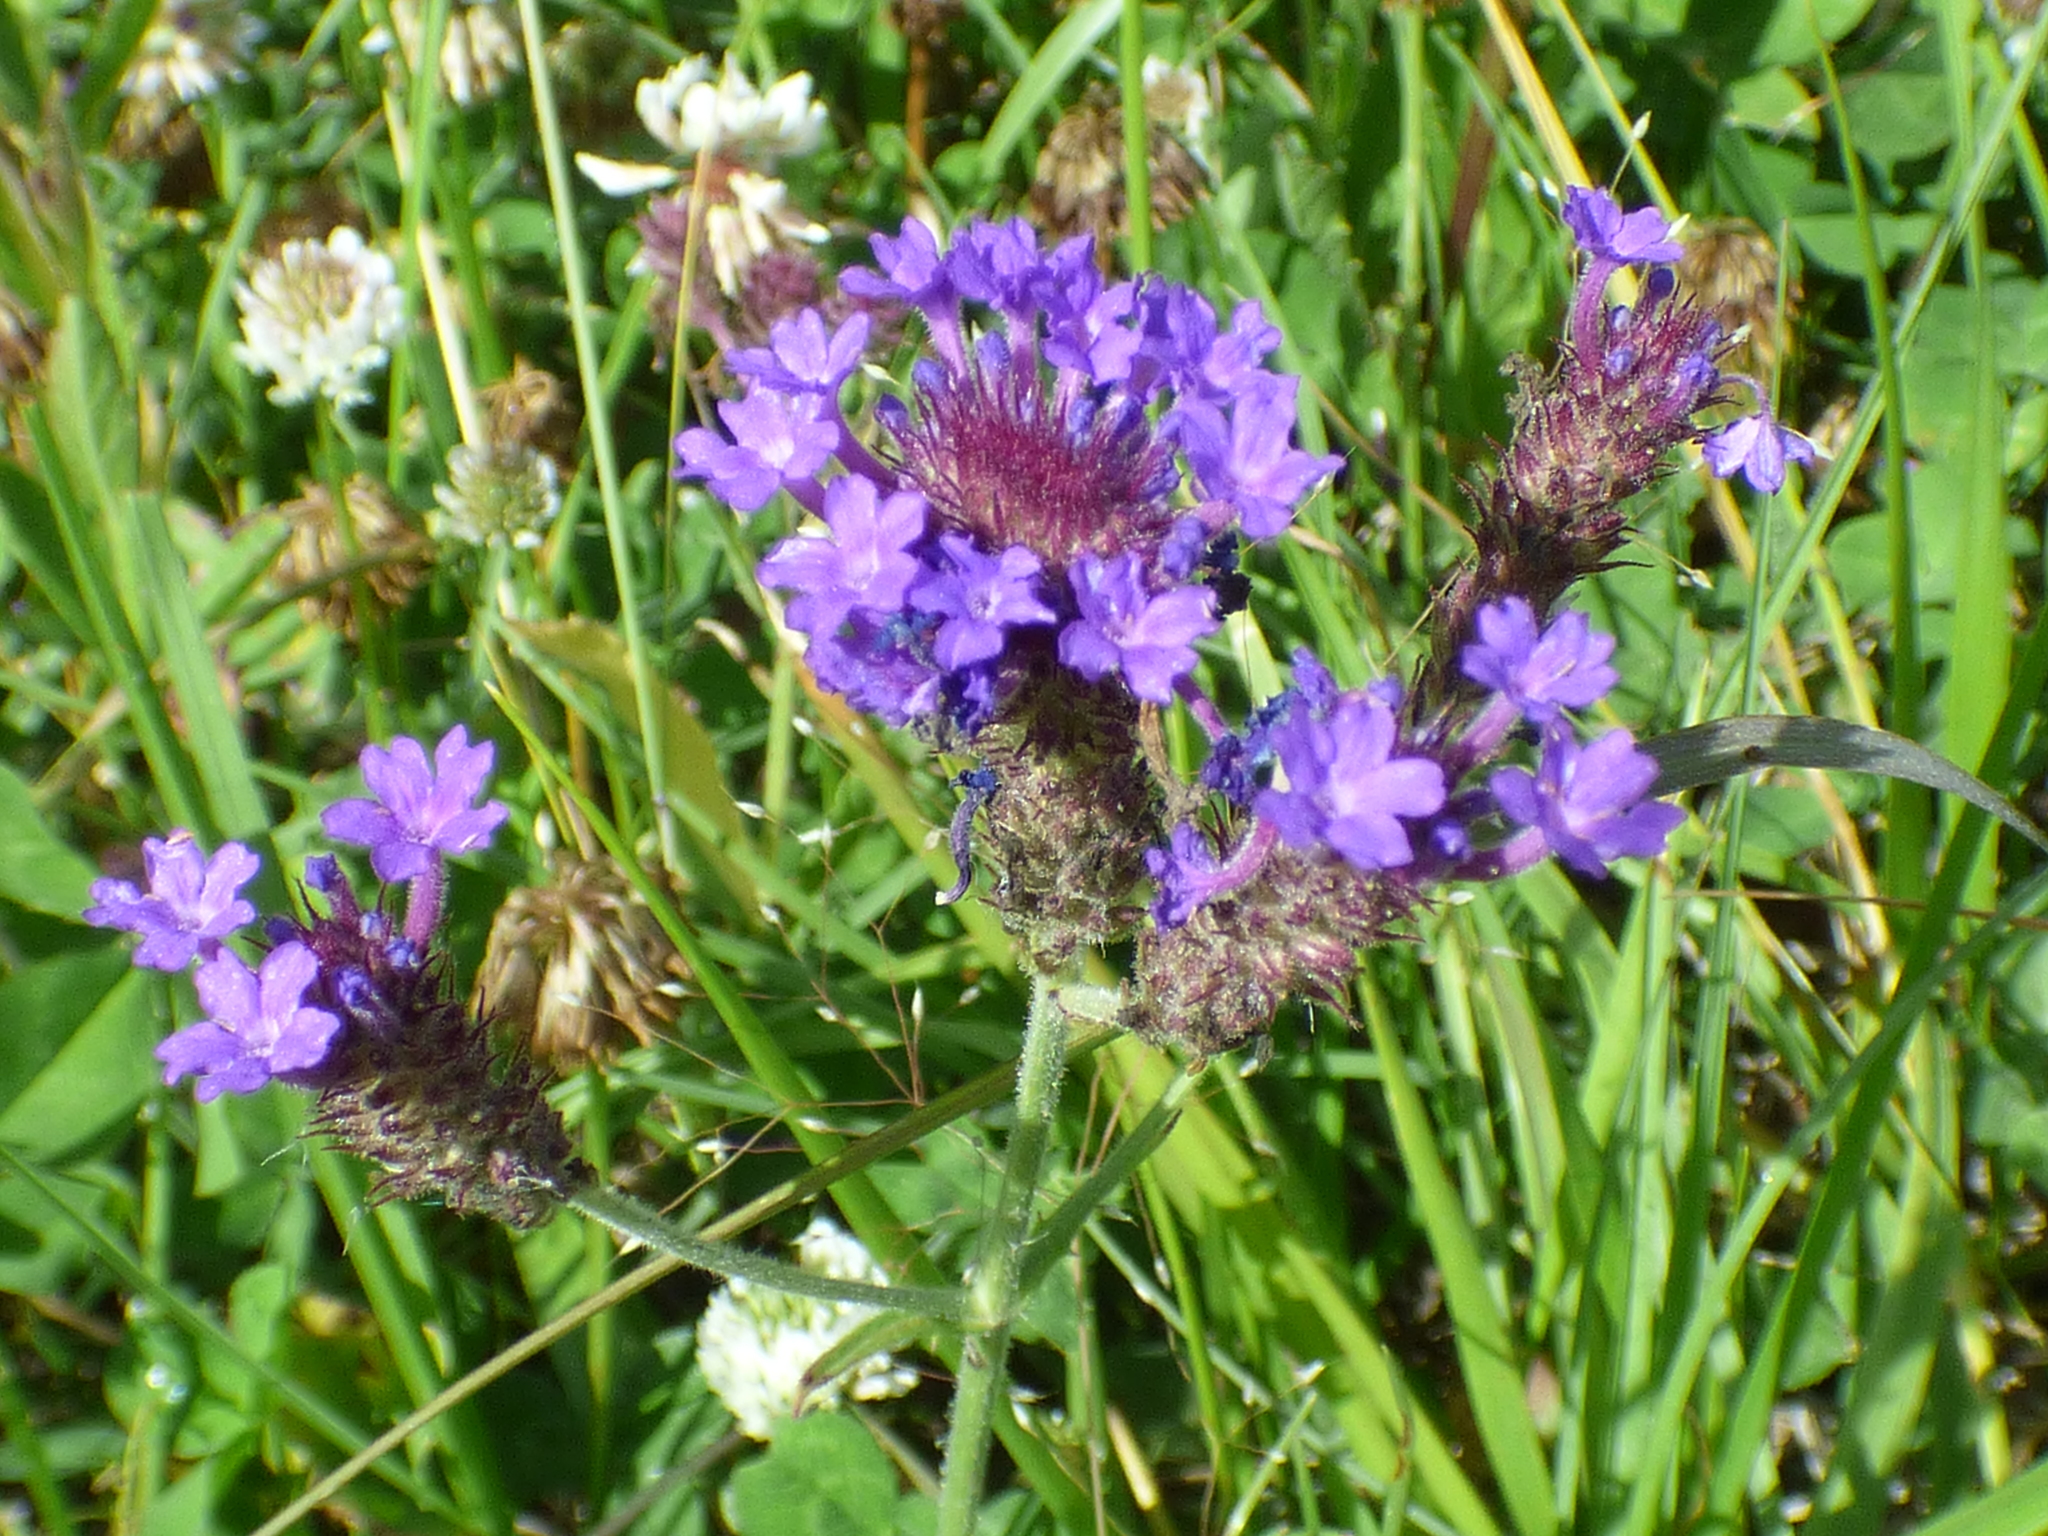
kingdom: Plantae
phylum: Tracheophyta
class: Magnoliopsida
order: Lamiales
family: Verbenaceae
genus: Verbena
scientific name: Verbena rigida
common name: Slender vervain
